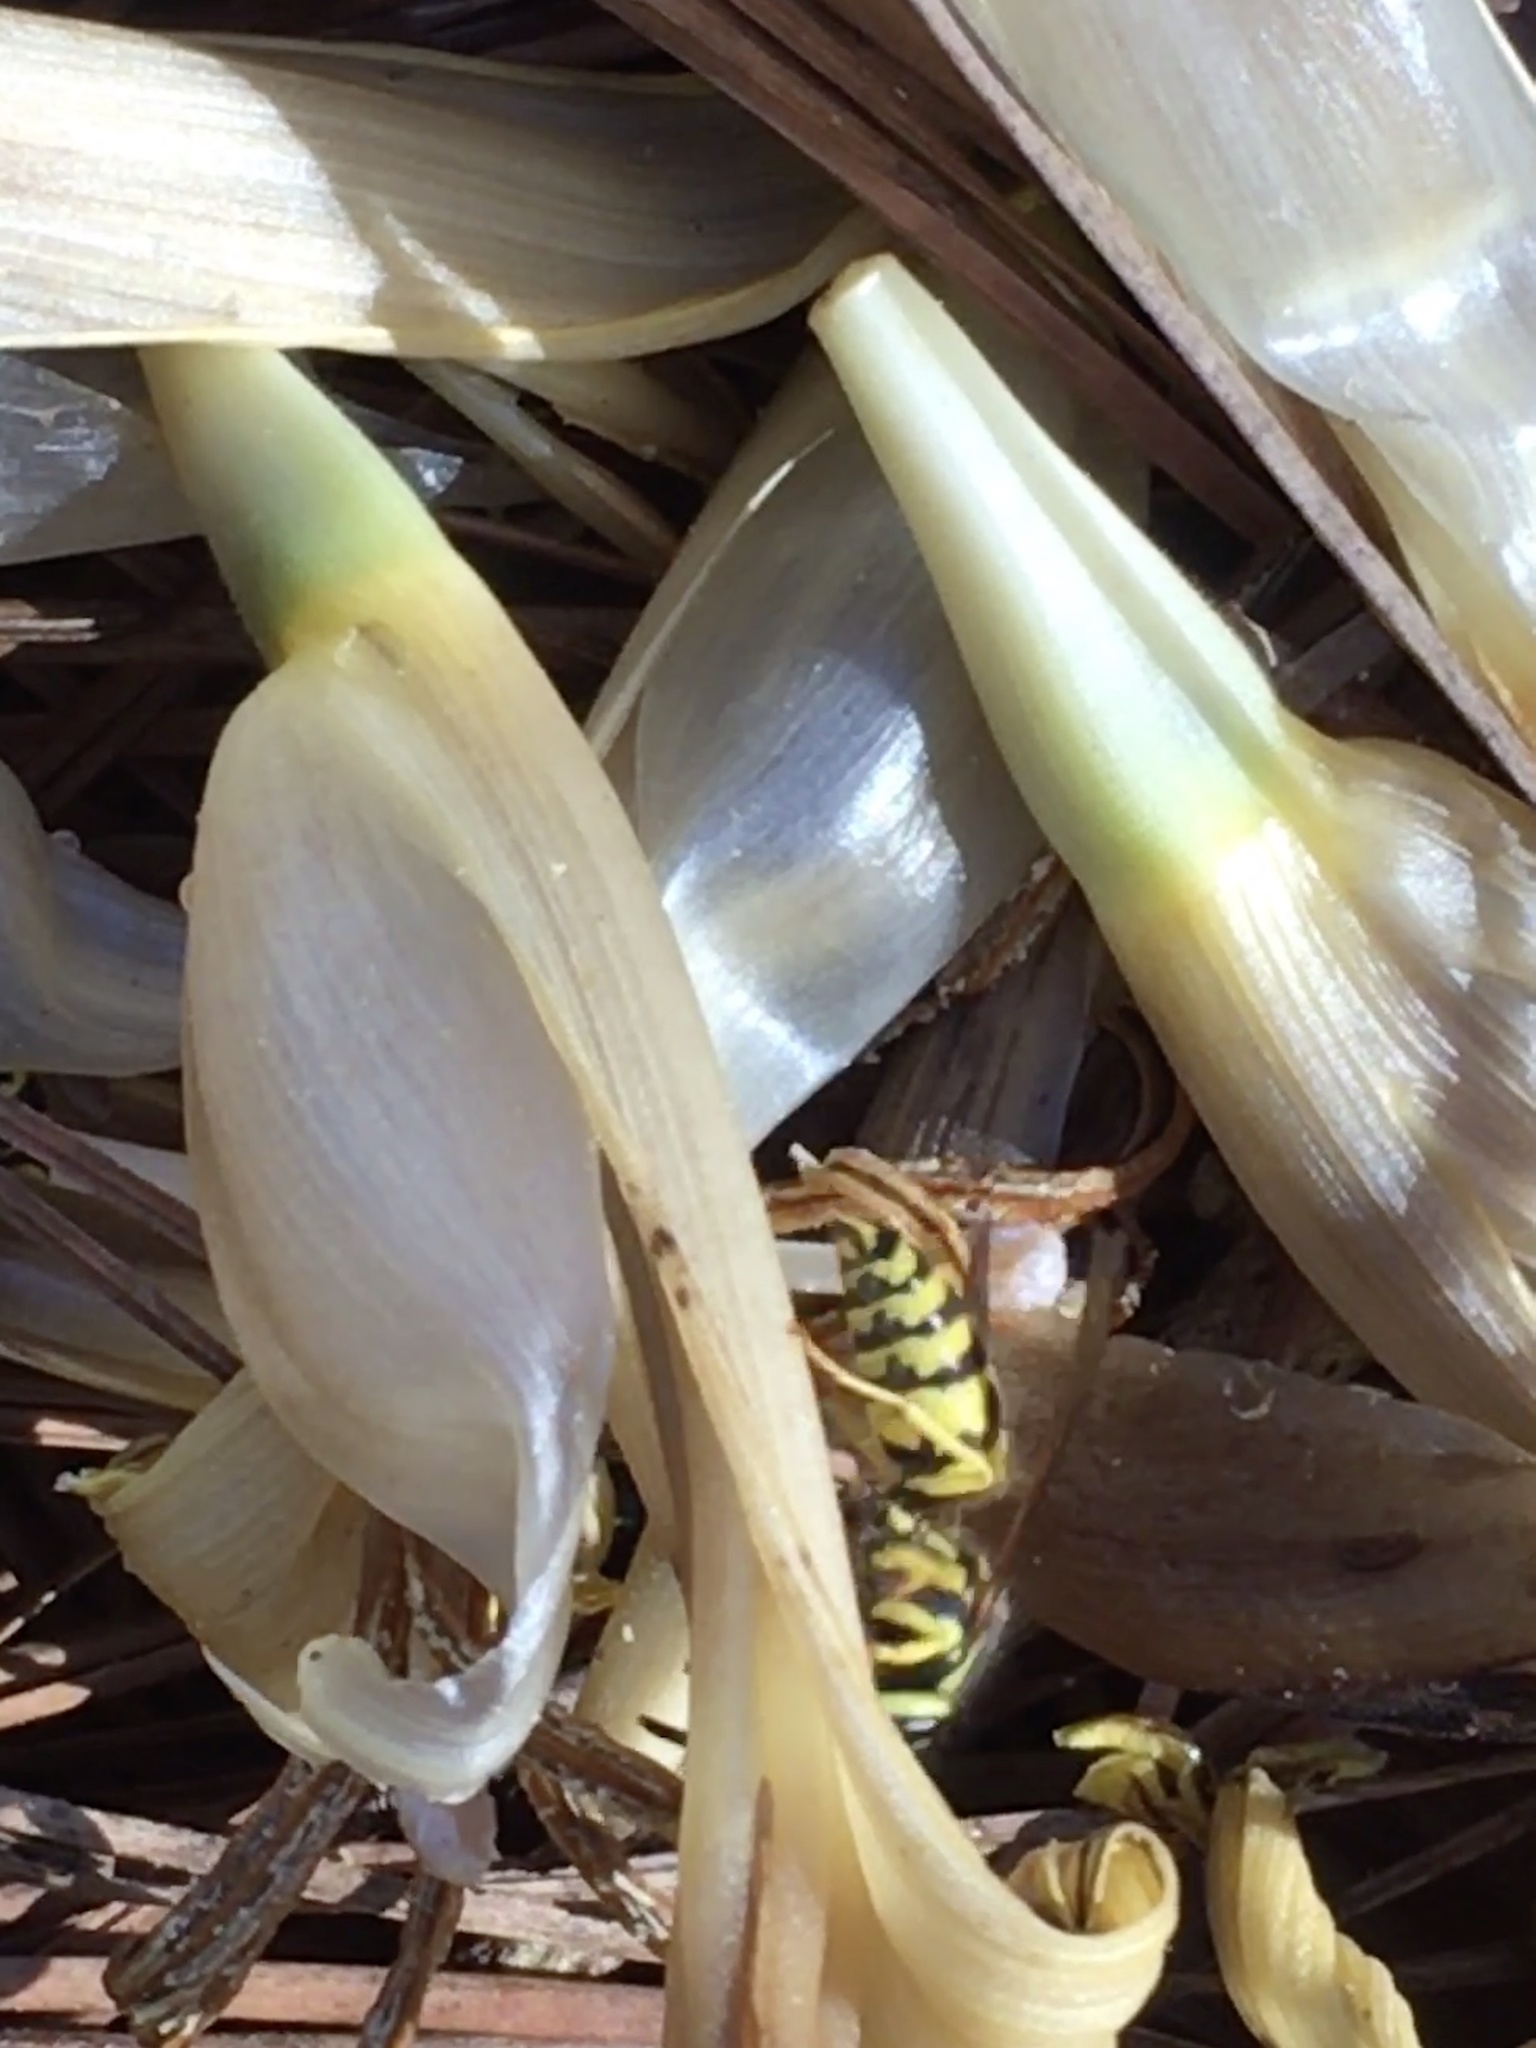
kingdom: Animalia
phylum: Arthropoda
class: Insecta
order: Hymenoptera
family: Vespidae
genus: Vespula
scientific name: Vespula maculifrons
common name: Eastern yellowjacket
